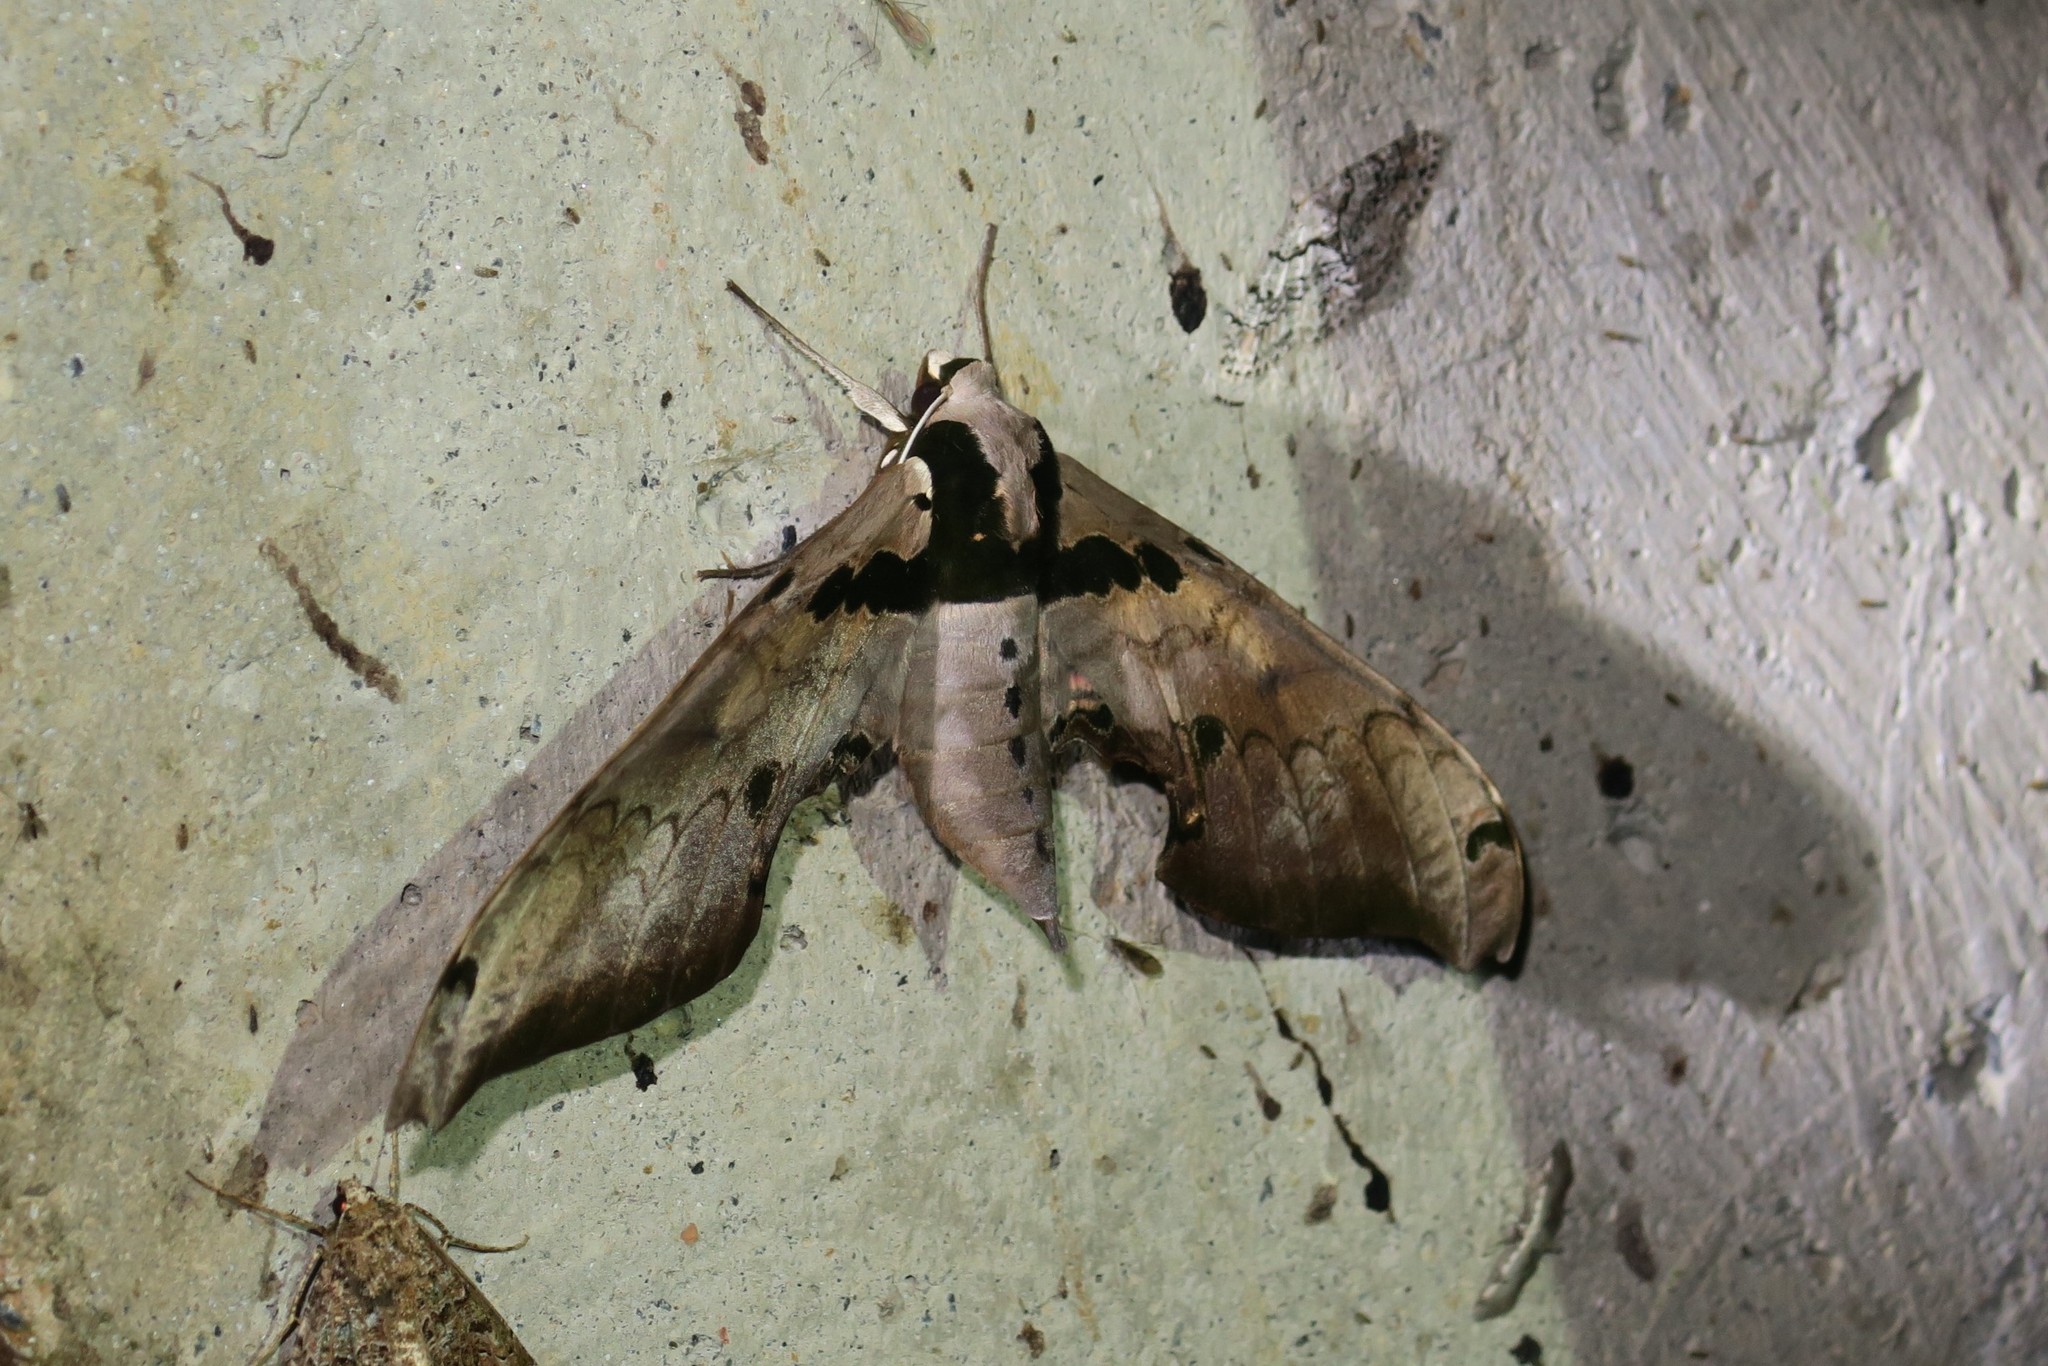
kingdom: Animalia
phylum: Arthropoda
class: Insecta
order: Lepidoptera
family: Sphingidae
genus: Adhemarius
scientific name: Adhemarius gannascus
